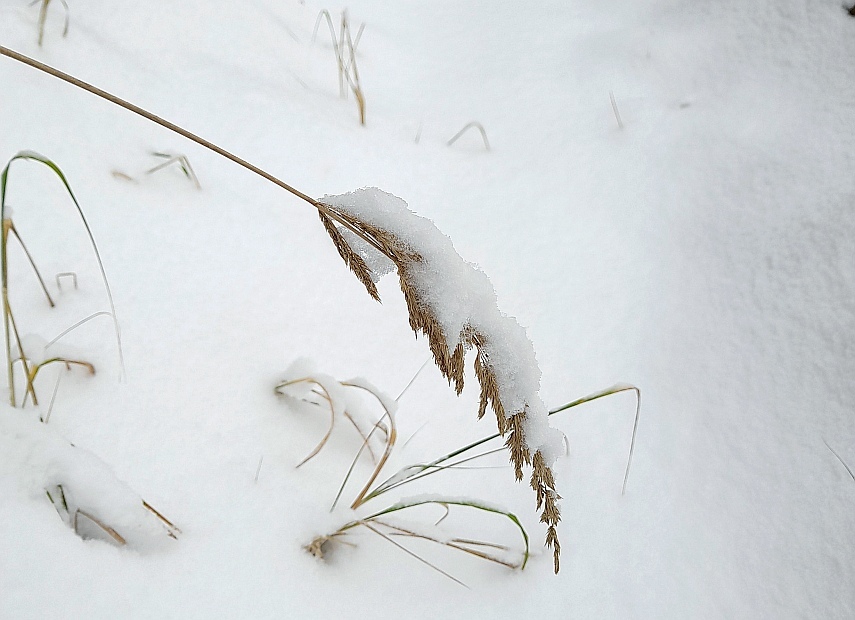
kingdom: Plantae
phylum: Tracheophyta
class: Liliopsida
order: Poales
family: Poaceae
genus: Calamagrostis
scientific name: Calamagrostis epigejos
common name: Wood small-reed
